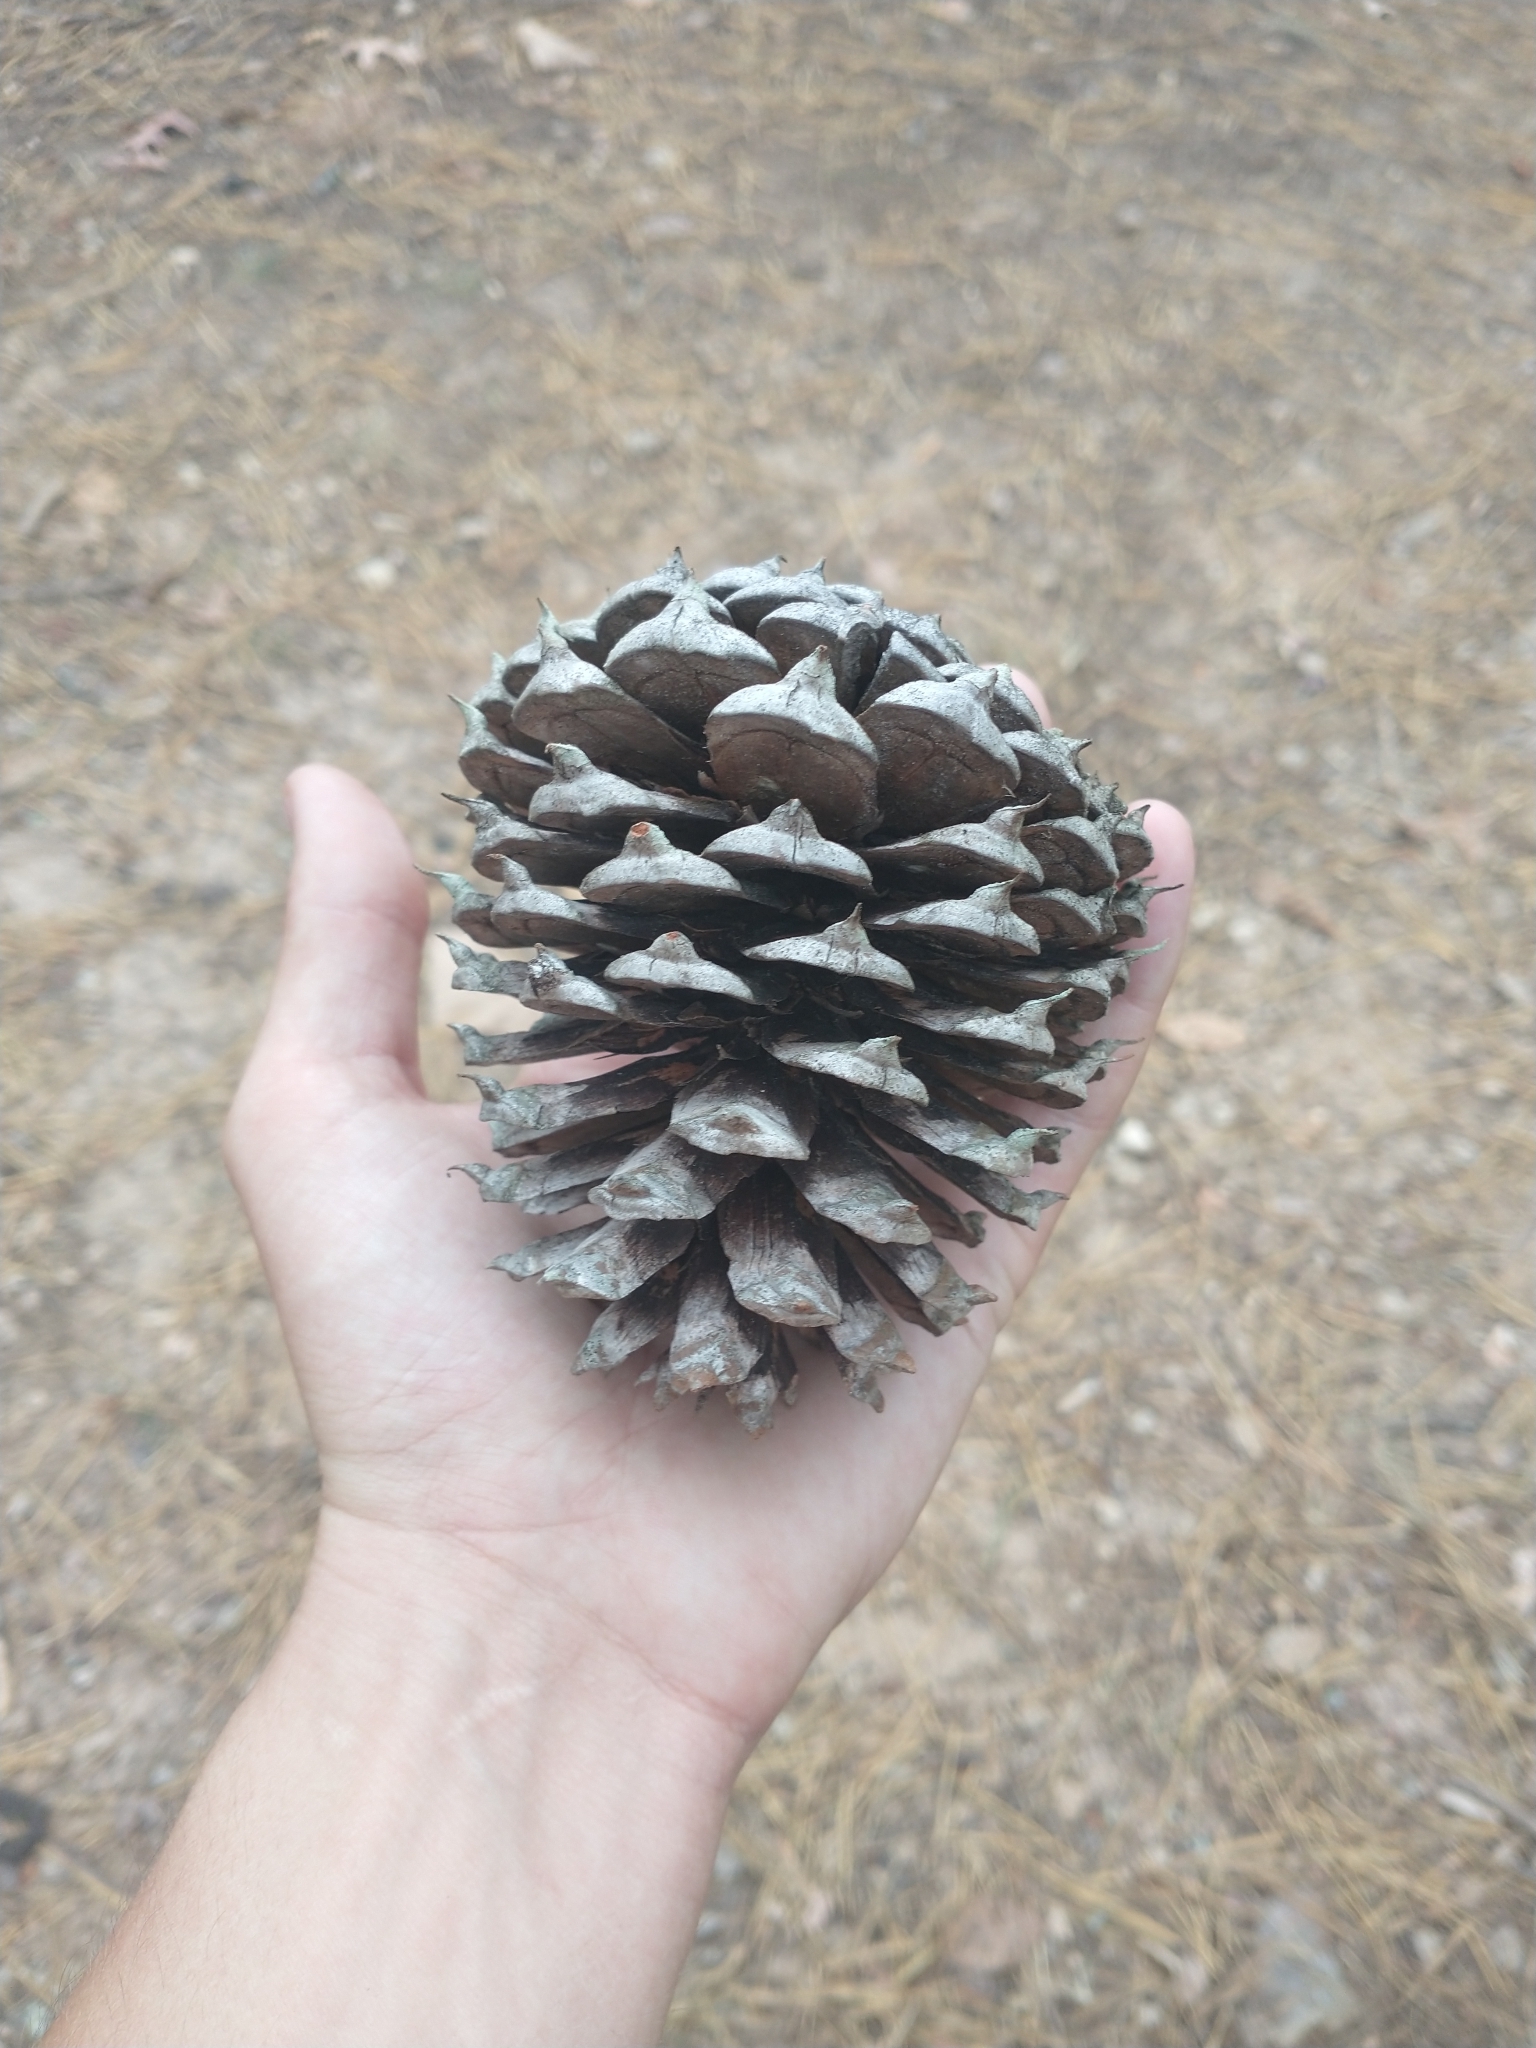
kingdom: Plantae
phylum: Tracheophyta
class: Pinopsida
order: Pinales
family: Pinaceae
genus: Pinus
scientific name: Pinus pungens
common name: Hickory pine
